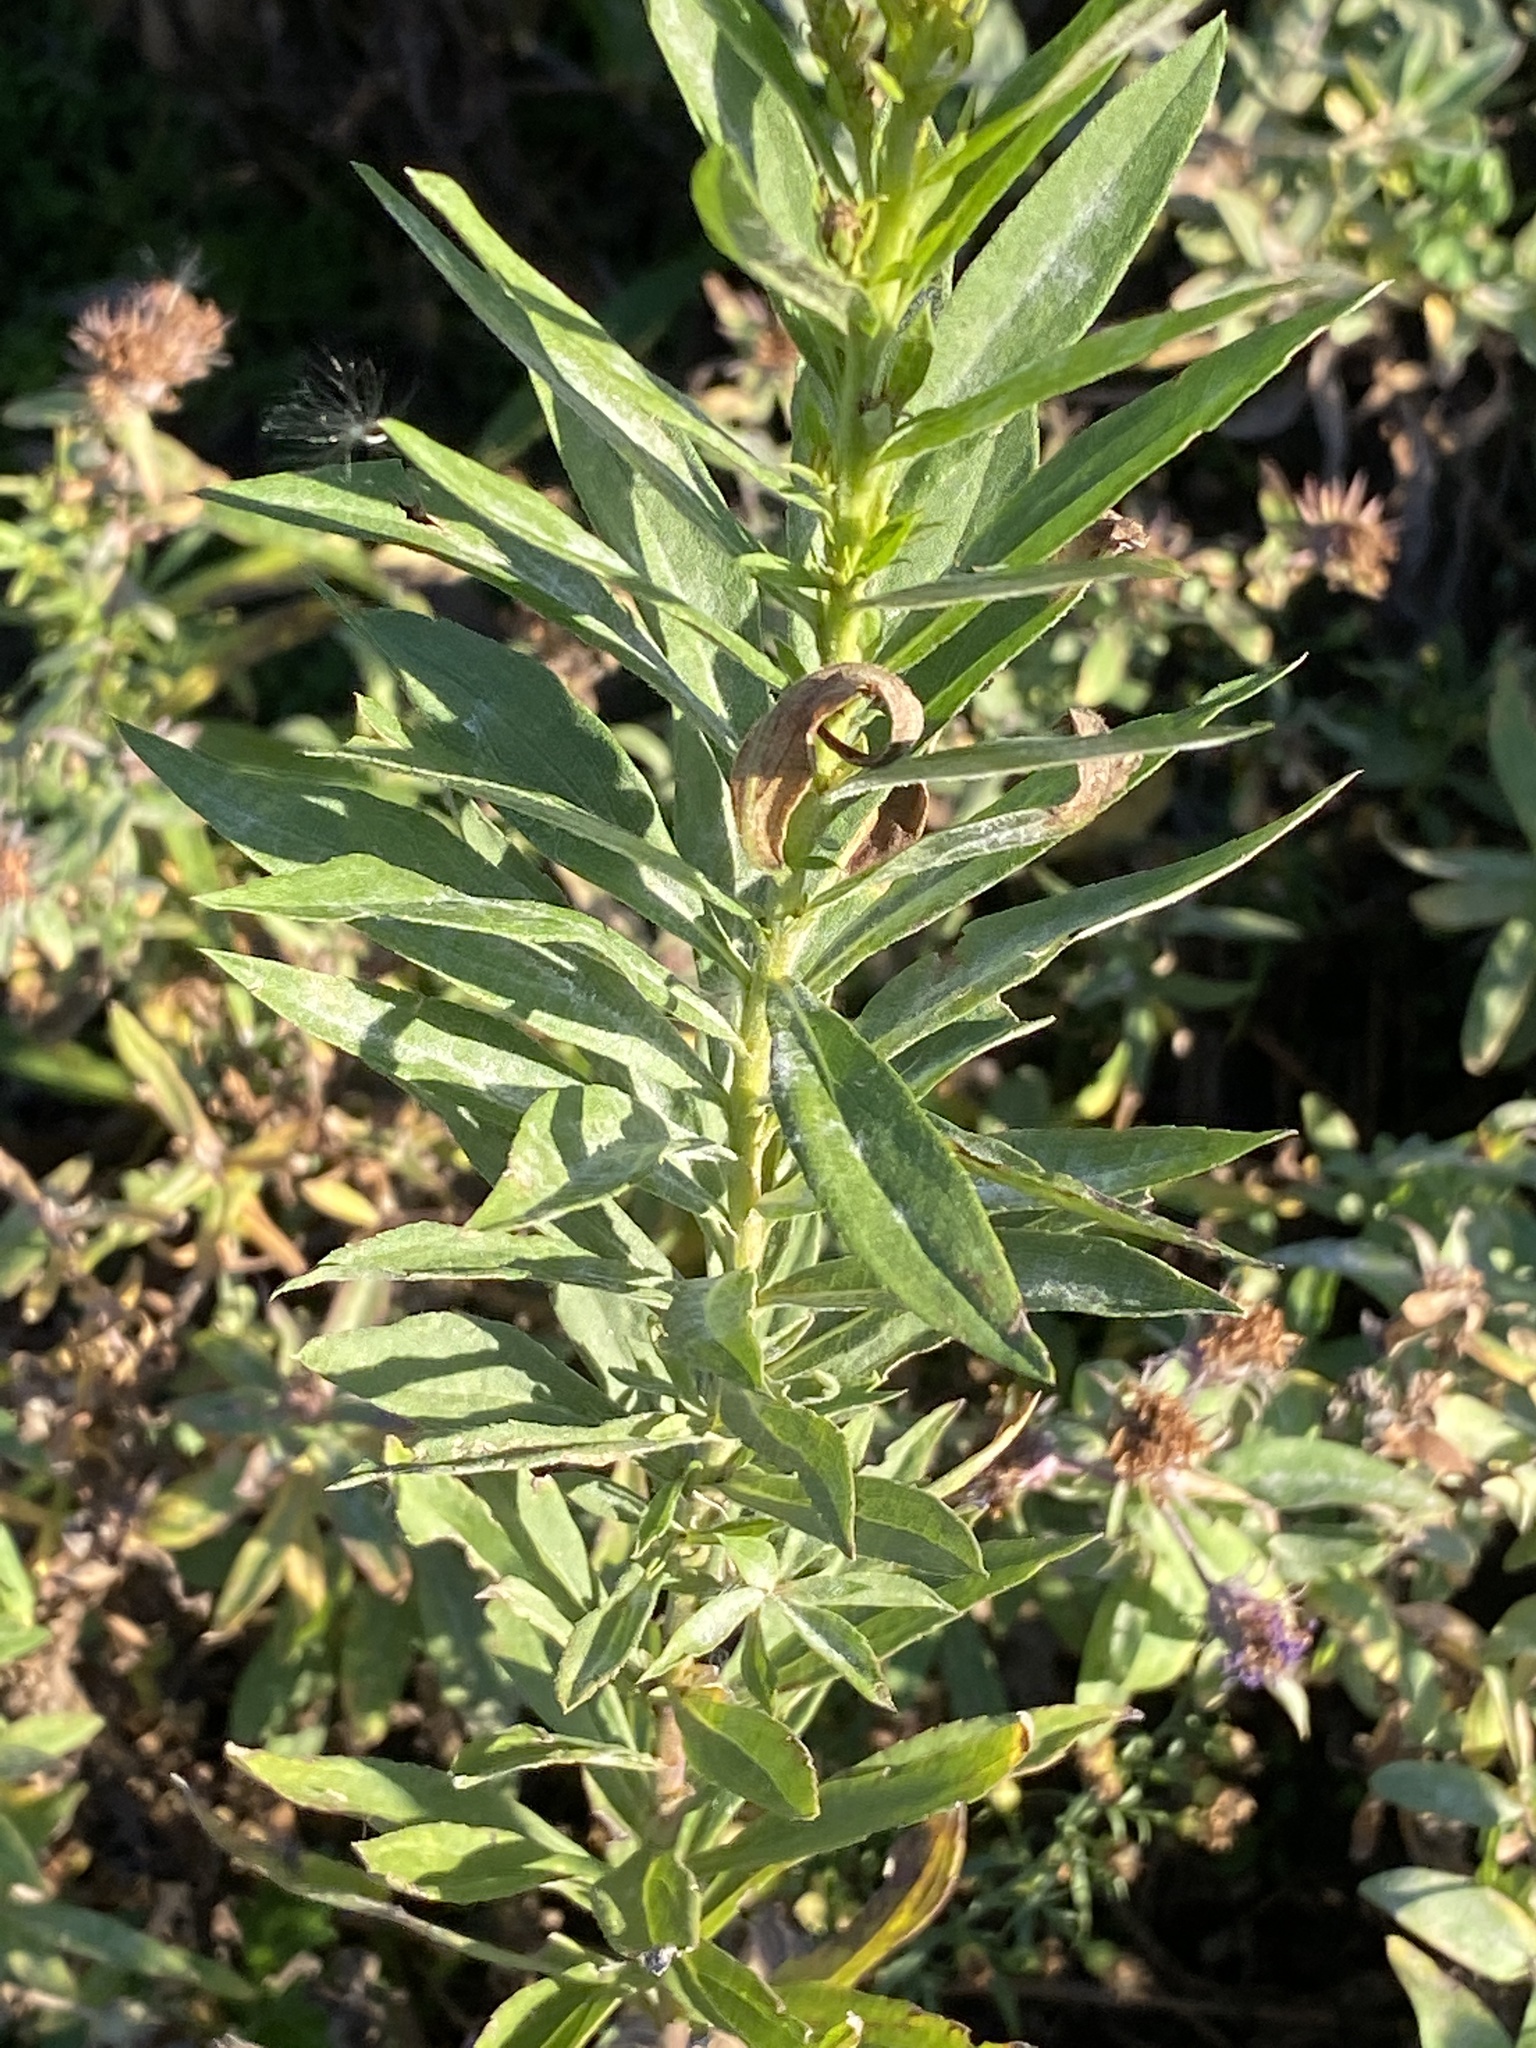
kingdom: Plantae
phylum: Tracheophyta
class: Magnoliopsida
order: Asterales
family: Asteraceae
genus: Solidago
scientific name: Solidago altissima
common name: Late goldenrod
